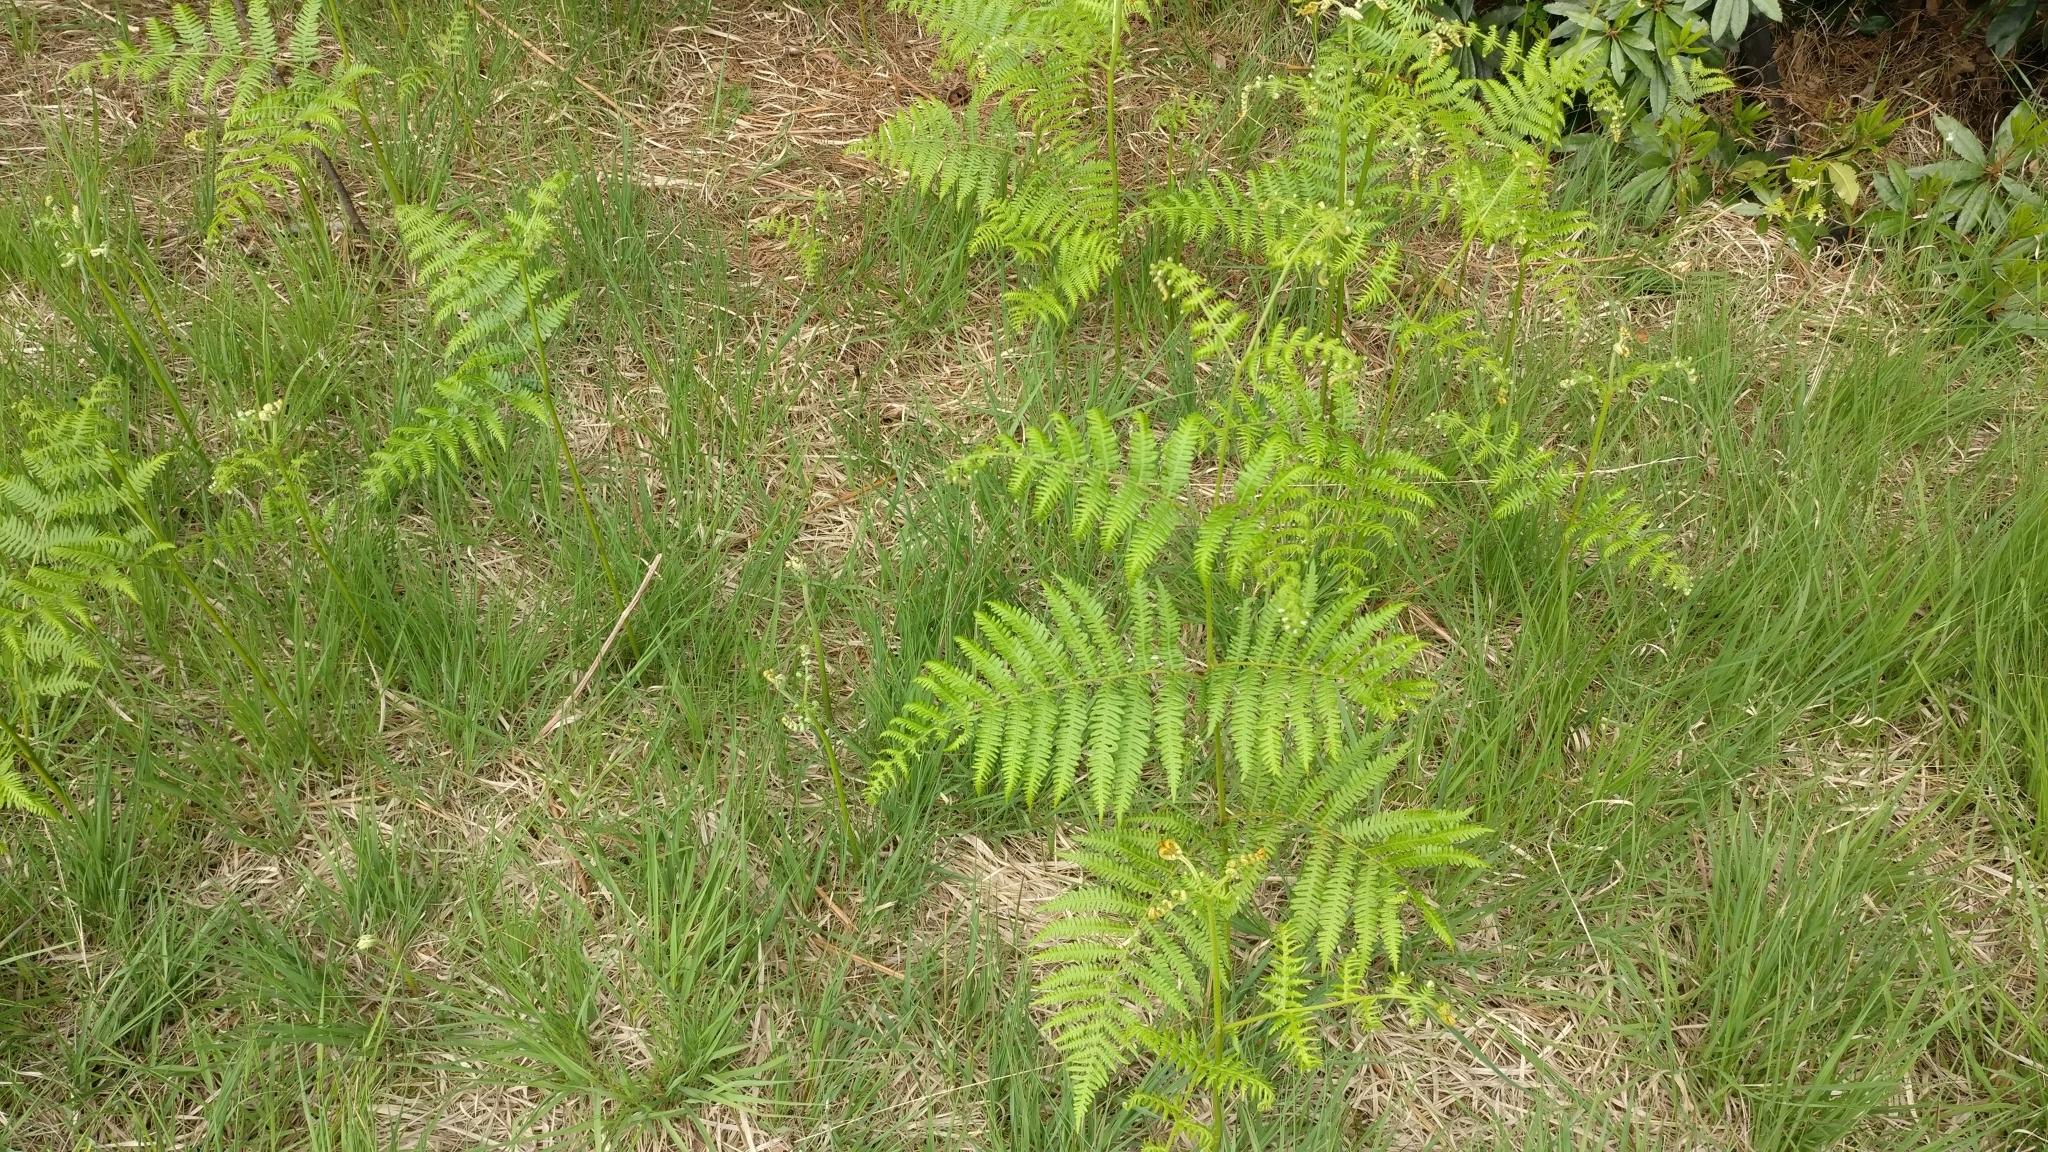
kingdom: Plantae
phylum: Tracheophyta
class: Polypodiopsida
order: Polypodiales
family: Dennstaedtiaceae
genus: Pteridium
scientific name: Pteridium aquilinum
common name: Bracken
